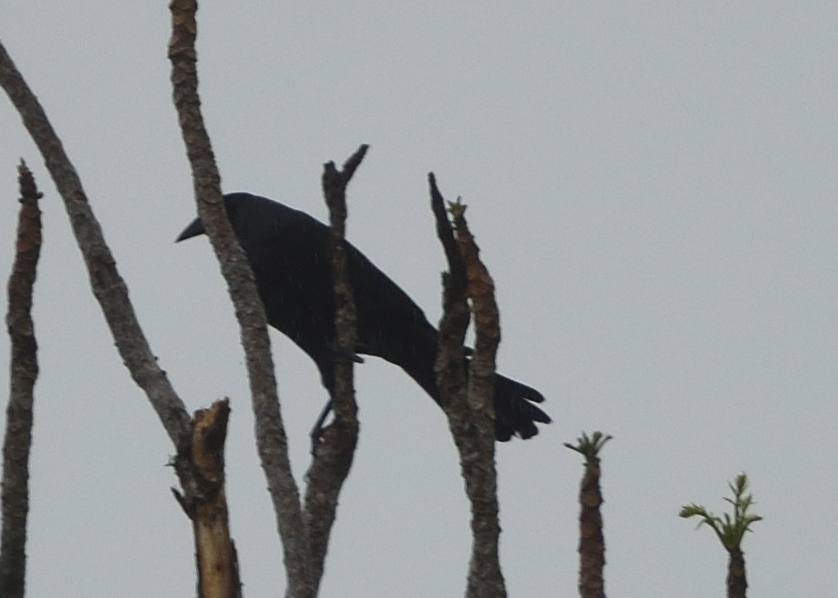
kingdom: Animalia
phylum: Chordata
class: Aves
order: Passeriformes
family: Icteridae
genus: Molothrus
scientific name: Molothrus oryzivorus
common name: Giant cowbird
